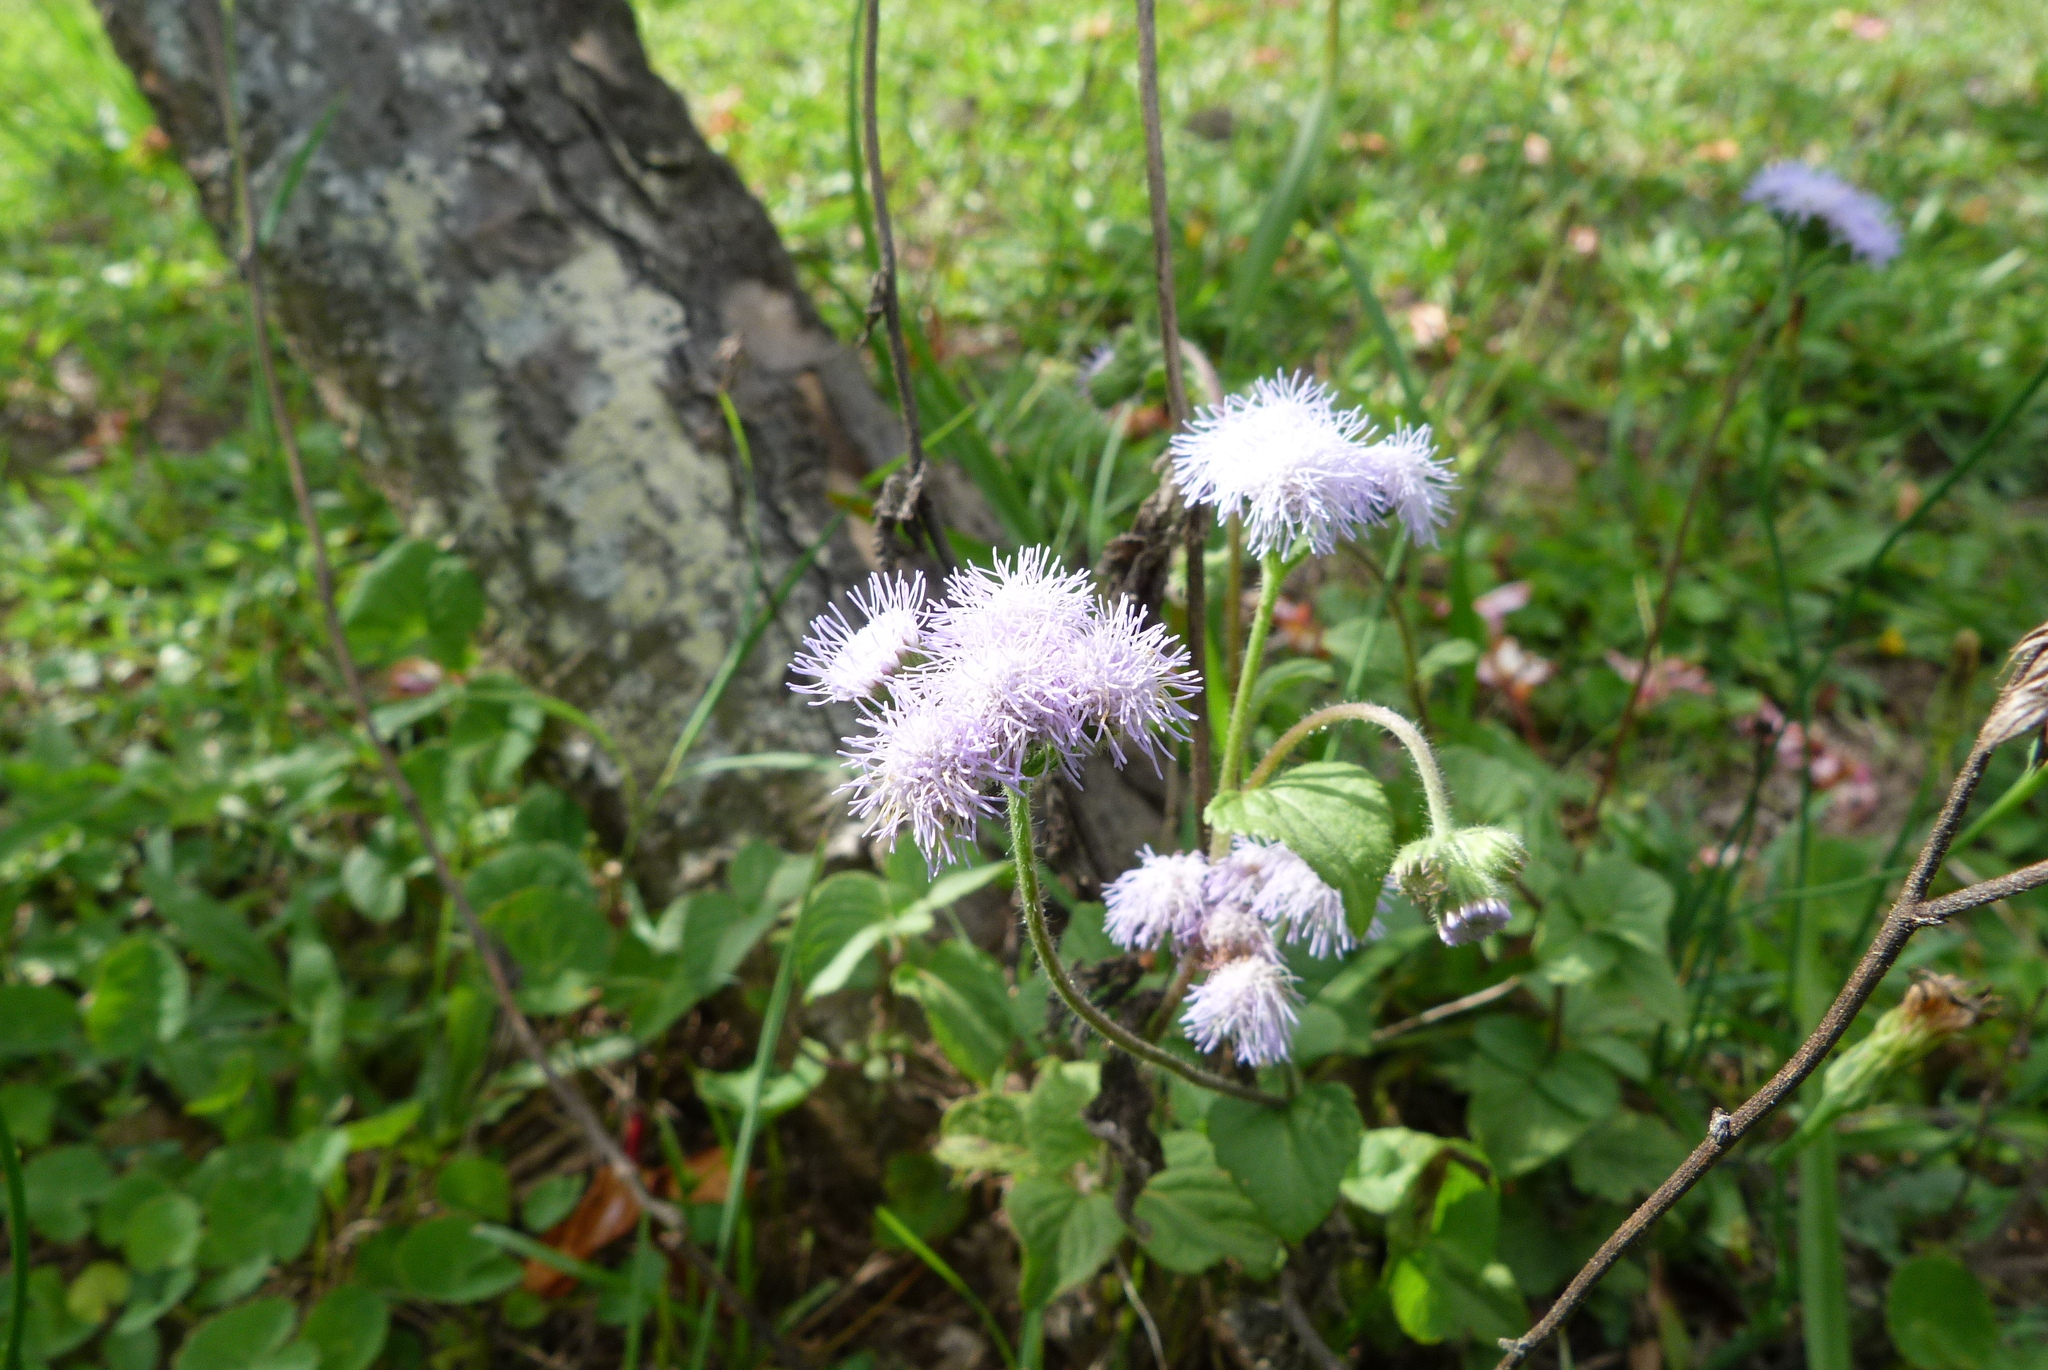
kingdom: Plantae
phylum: Tracheophyta
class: Magnoliopsida
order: Asterales
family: Asteraceae
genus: Ageratum
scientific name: Ageratum houstonianum
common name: Bluemink
